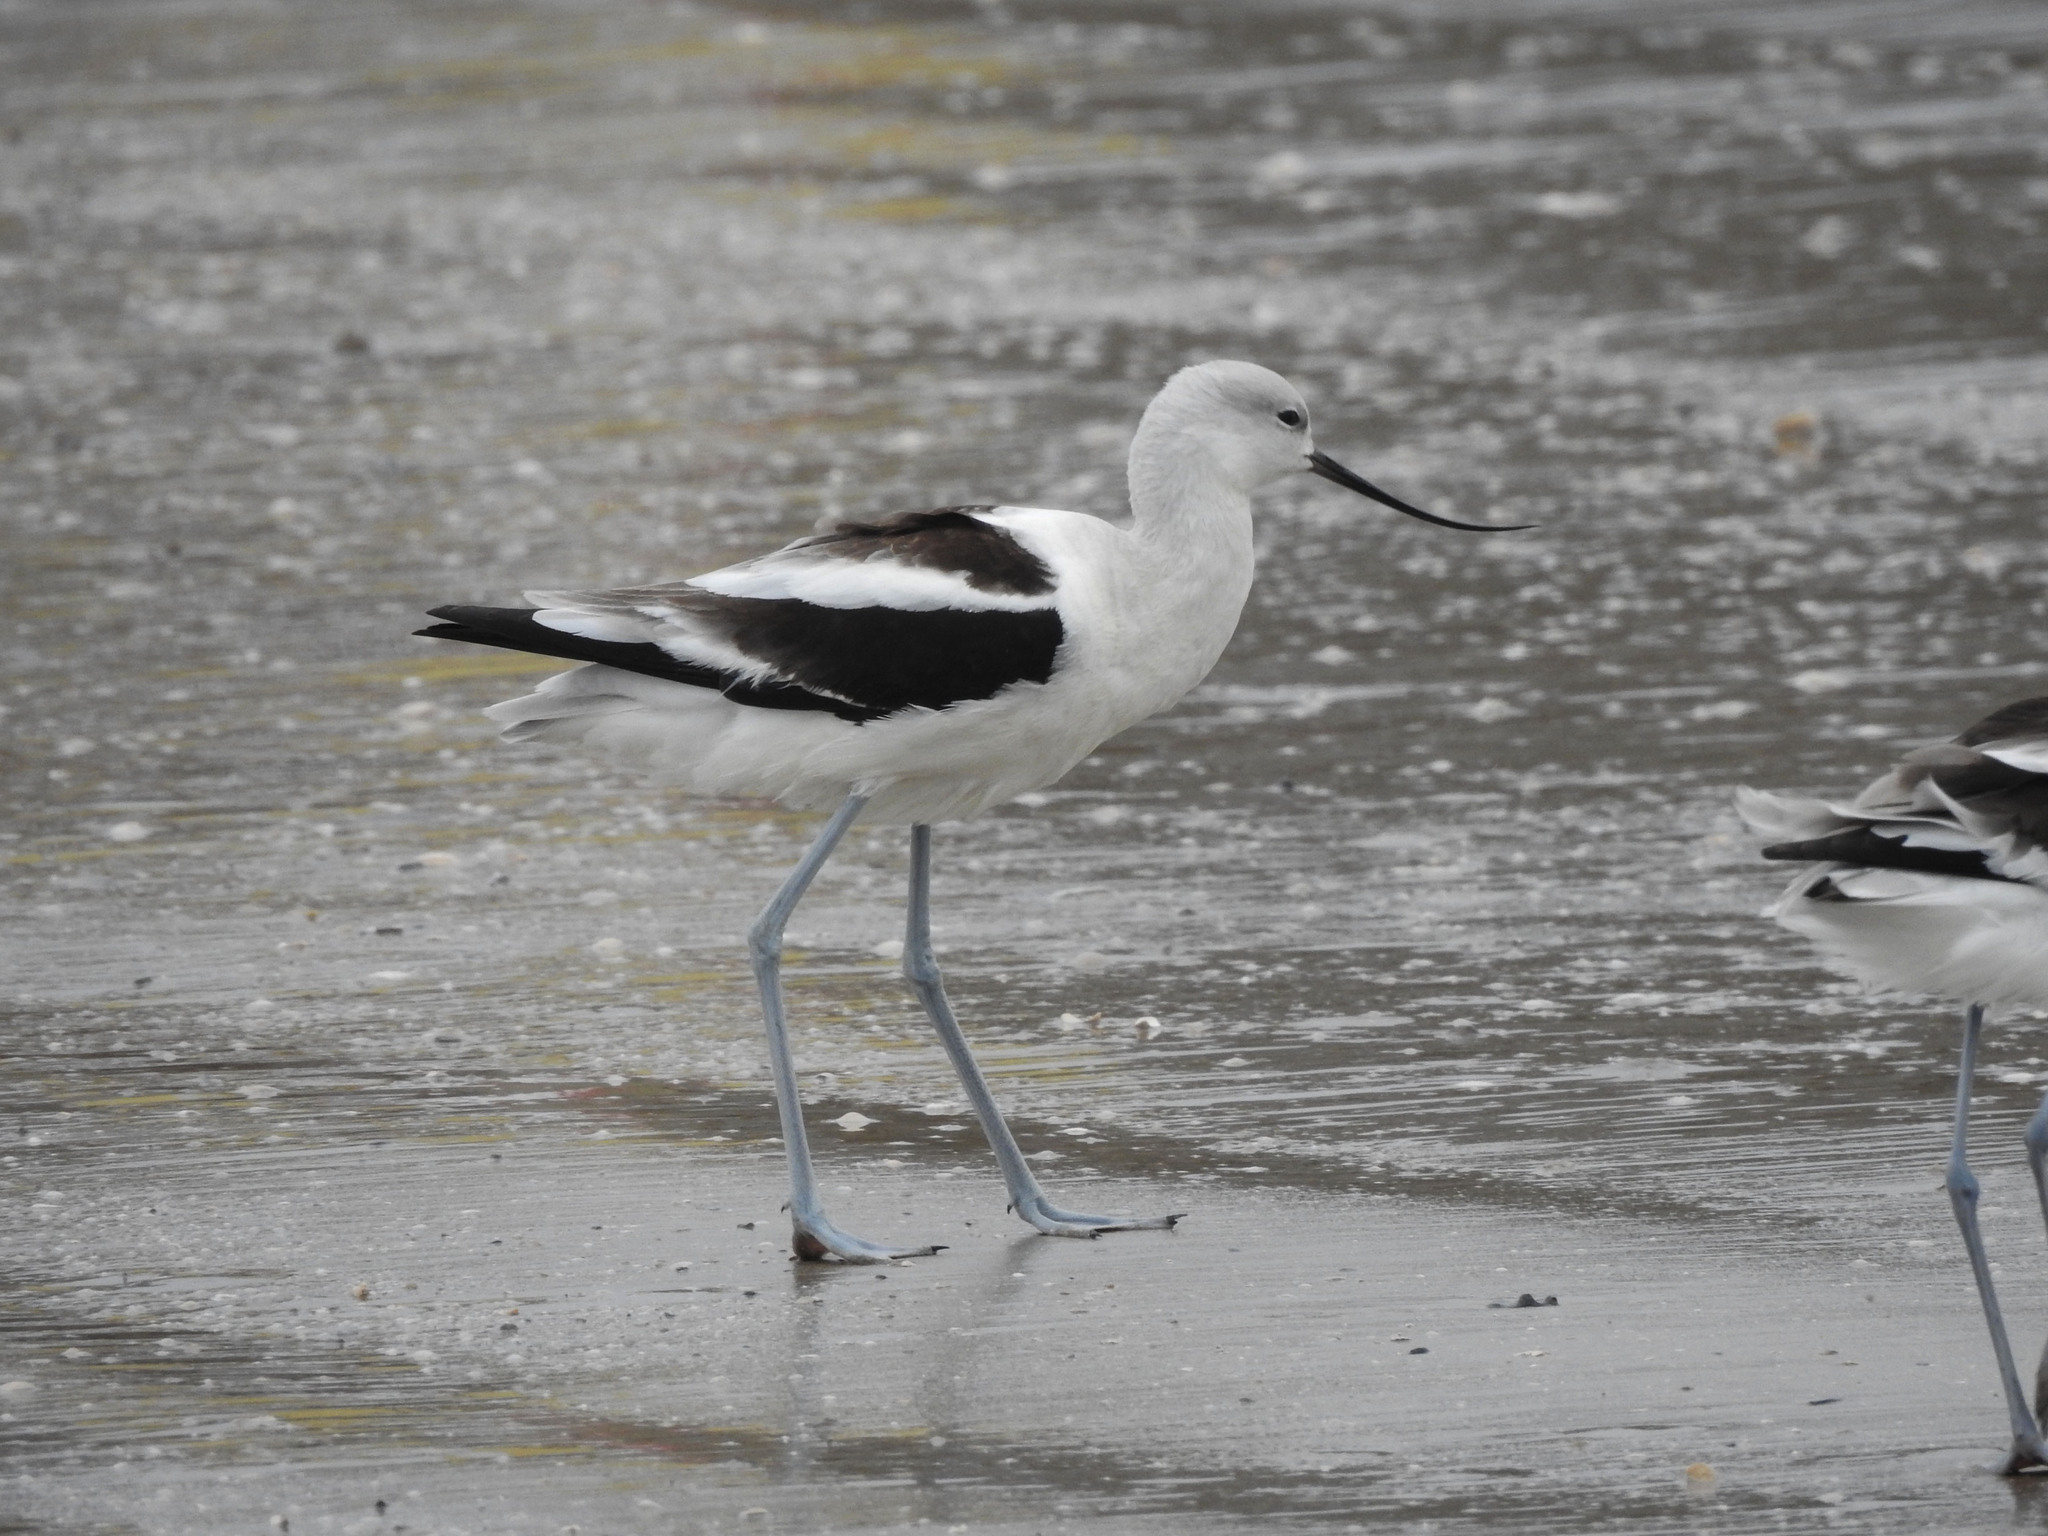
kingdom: Animalia
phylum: Chordata
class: Aves
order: Charadriiformes
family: Recurvirostridae
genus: Recurvirostra
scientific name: Recurvirostra americana
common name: American avocet
